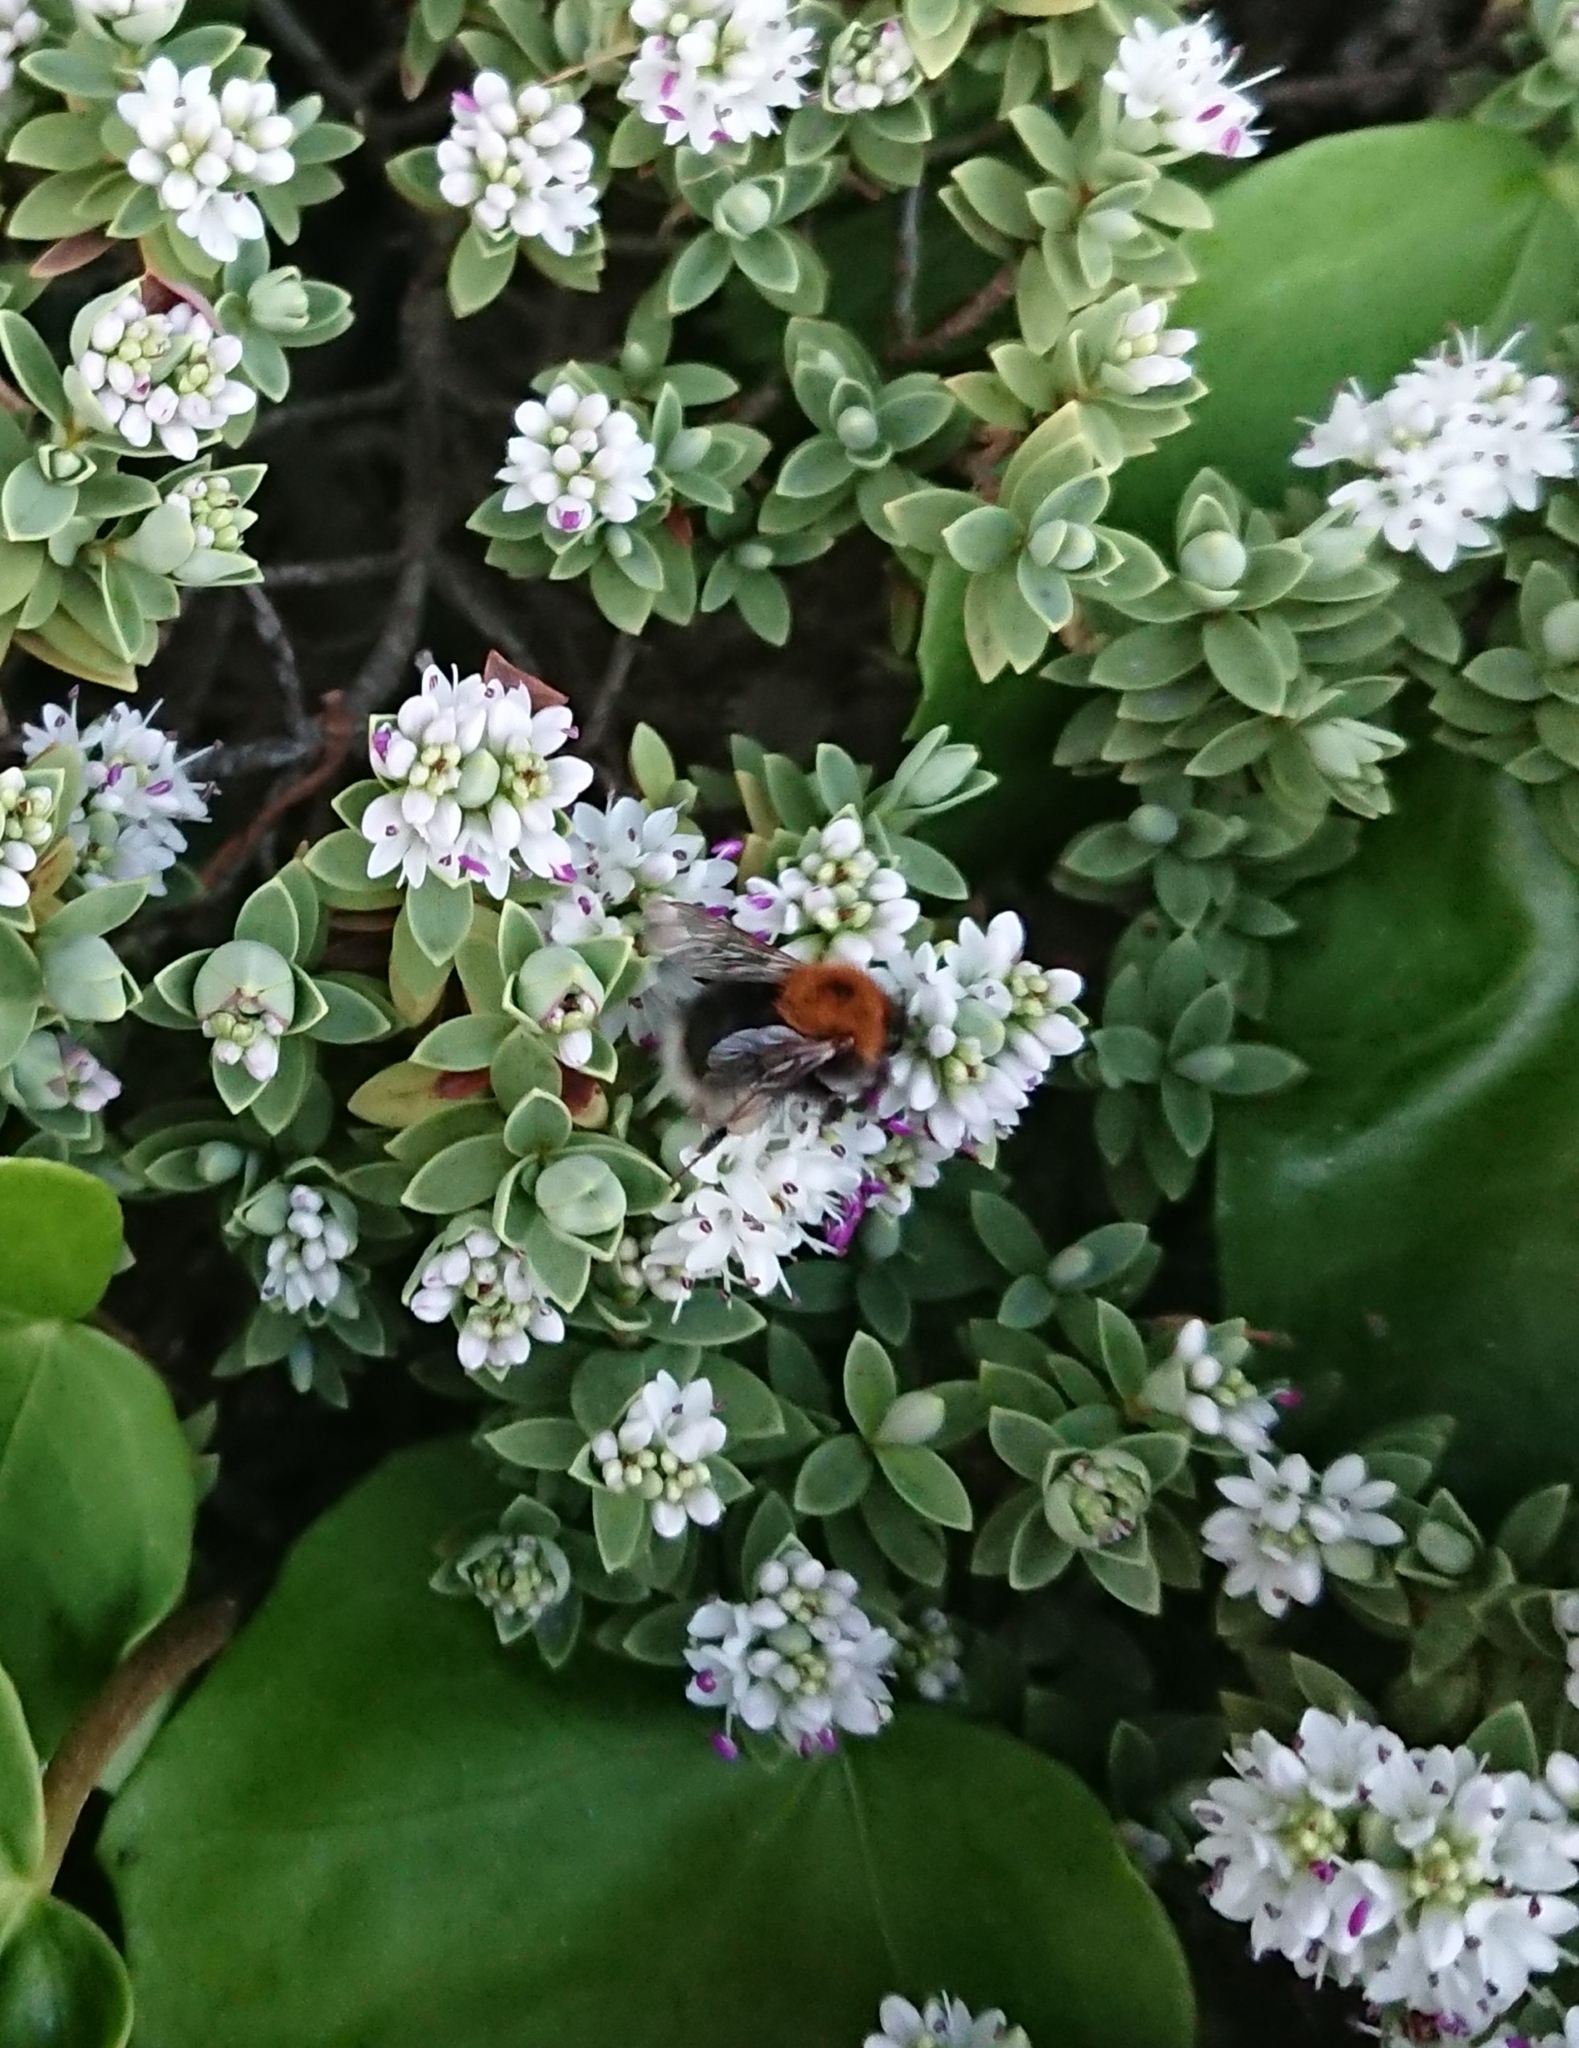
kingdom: Animalia
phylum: Arthropoda
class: Insecta
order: Hymenoptera
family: Apidae
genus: Bombus
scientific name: Bombus hypnorum
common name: New garden bumblebee
